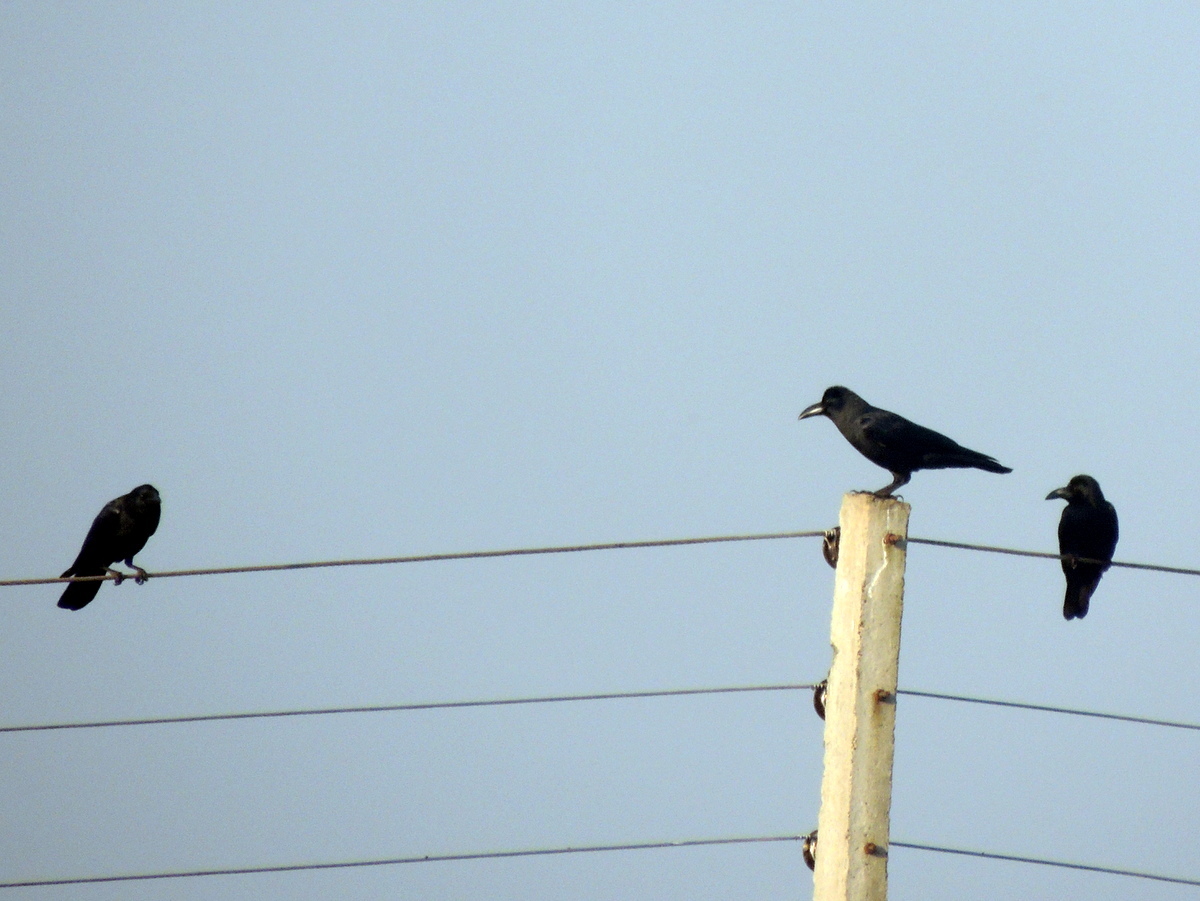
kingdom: Animalia
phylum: Chordata
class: Aves
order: Passeriformes
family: Corvidae
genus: Corvus
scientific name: Corvus macrorhynchos
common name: Large-billed crow
